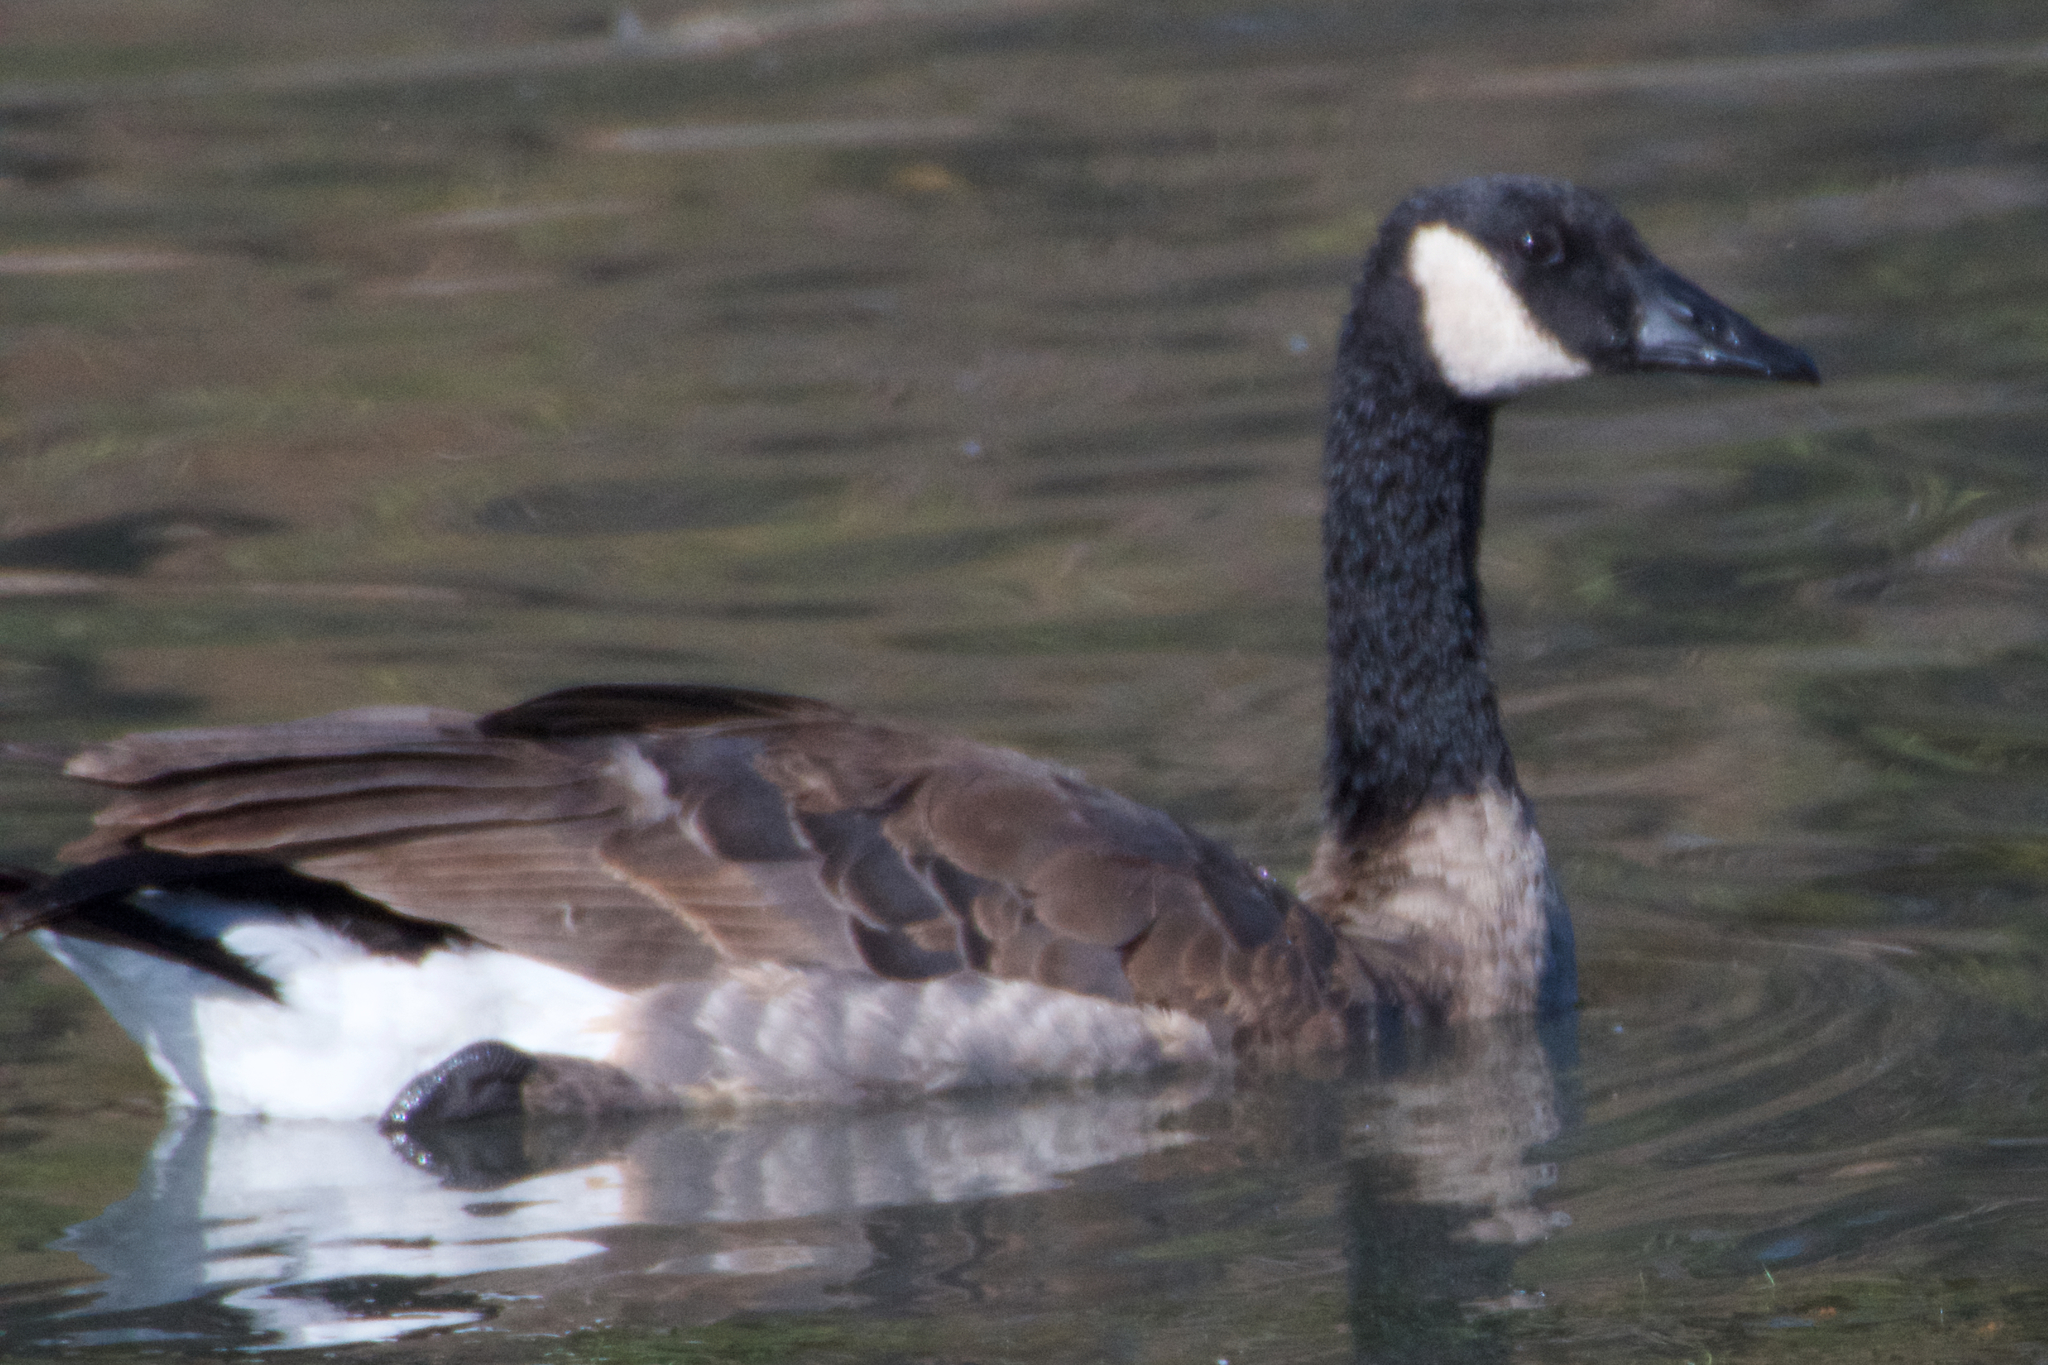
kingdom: Animalia
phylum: Chordata
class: Aves
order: Anseriformes
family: Anatidae
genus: Branta
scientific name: Branta canadensis
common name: Canada goose
